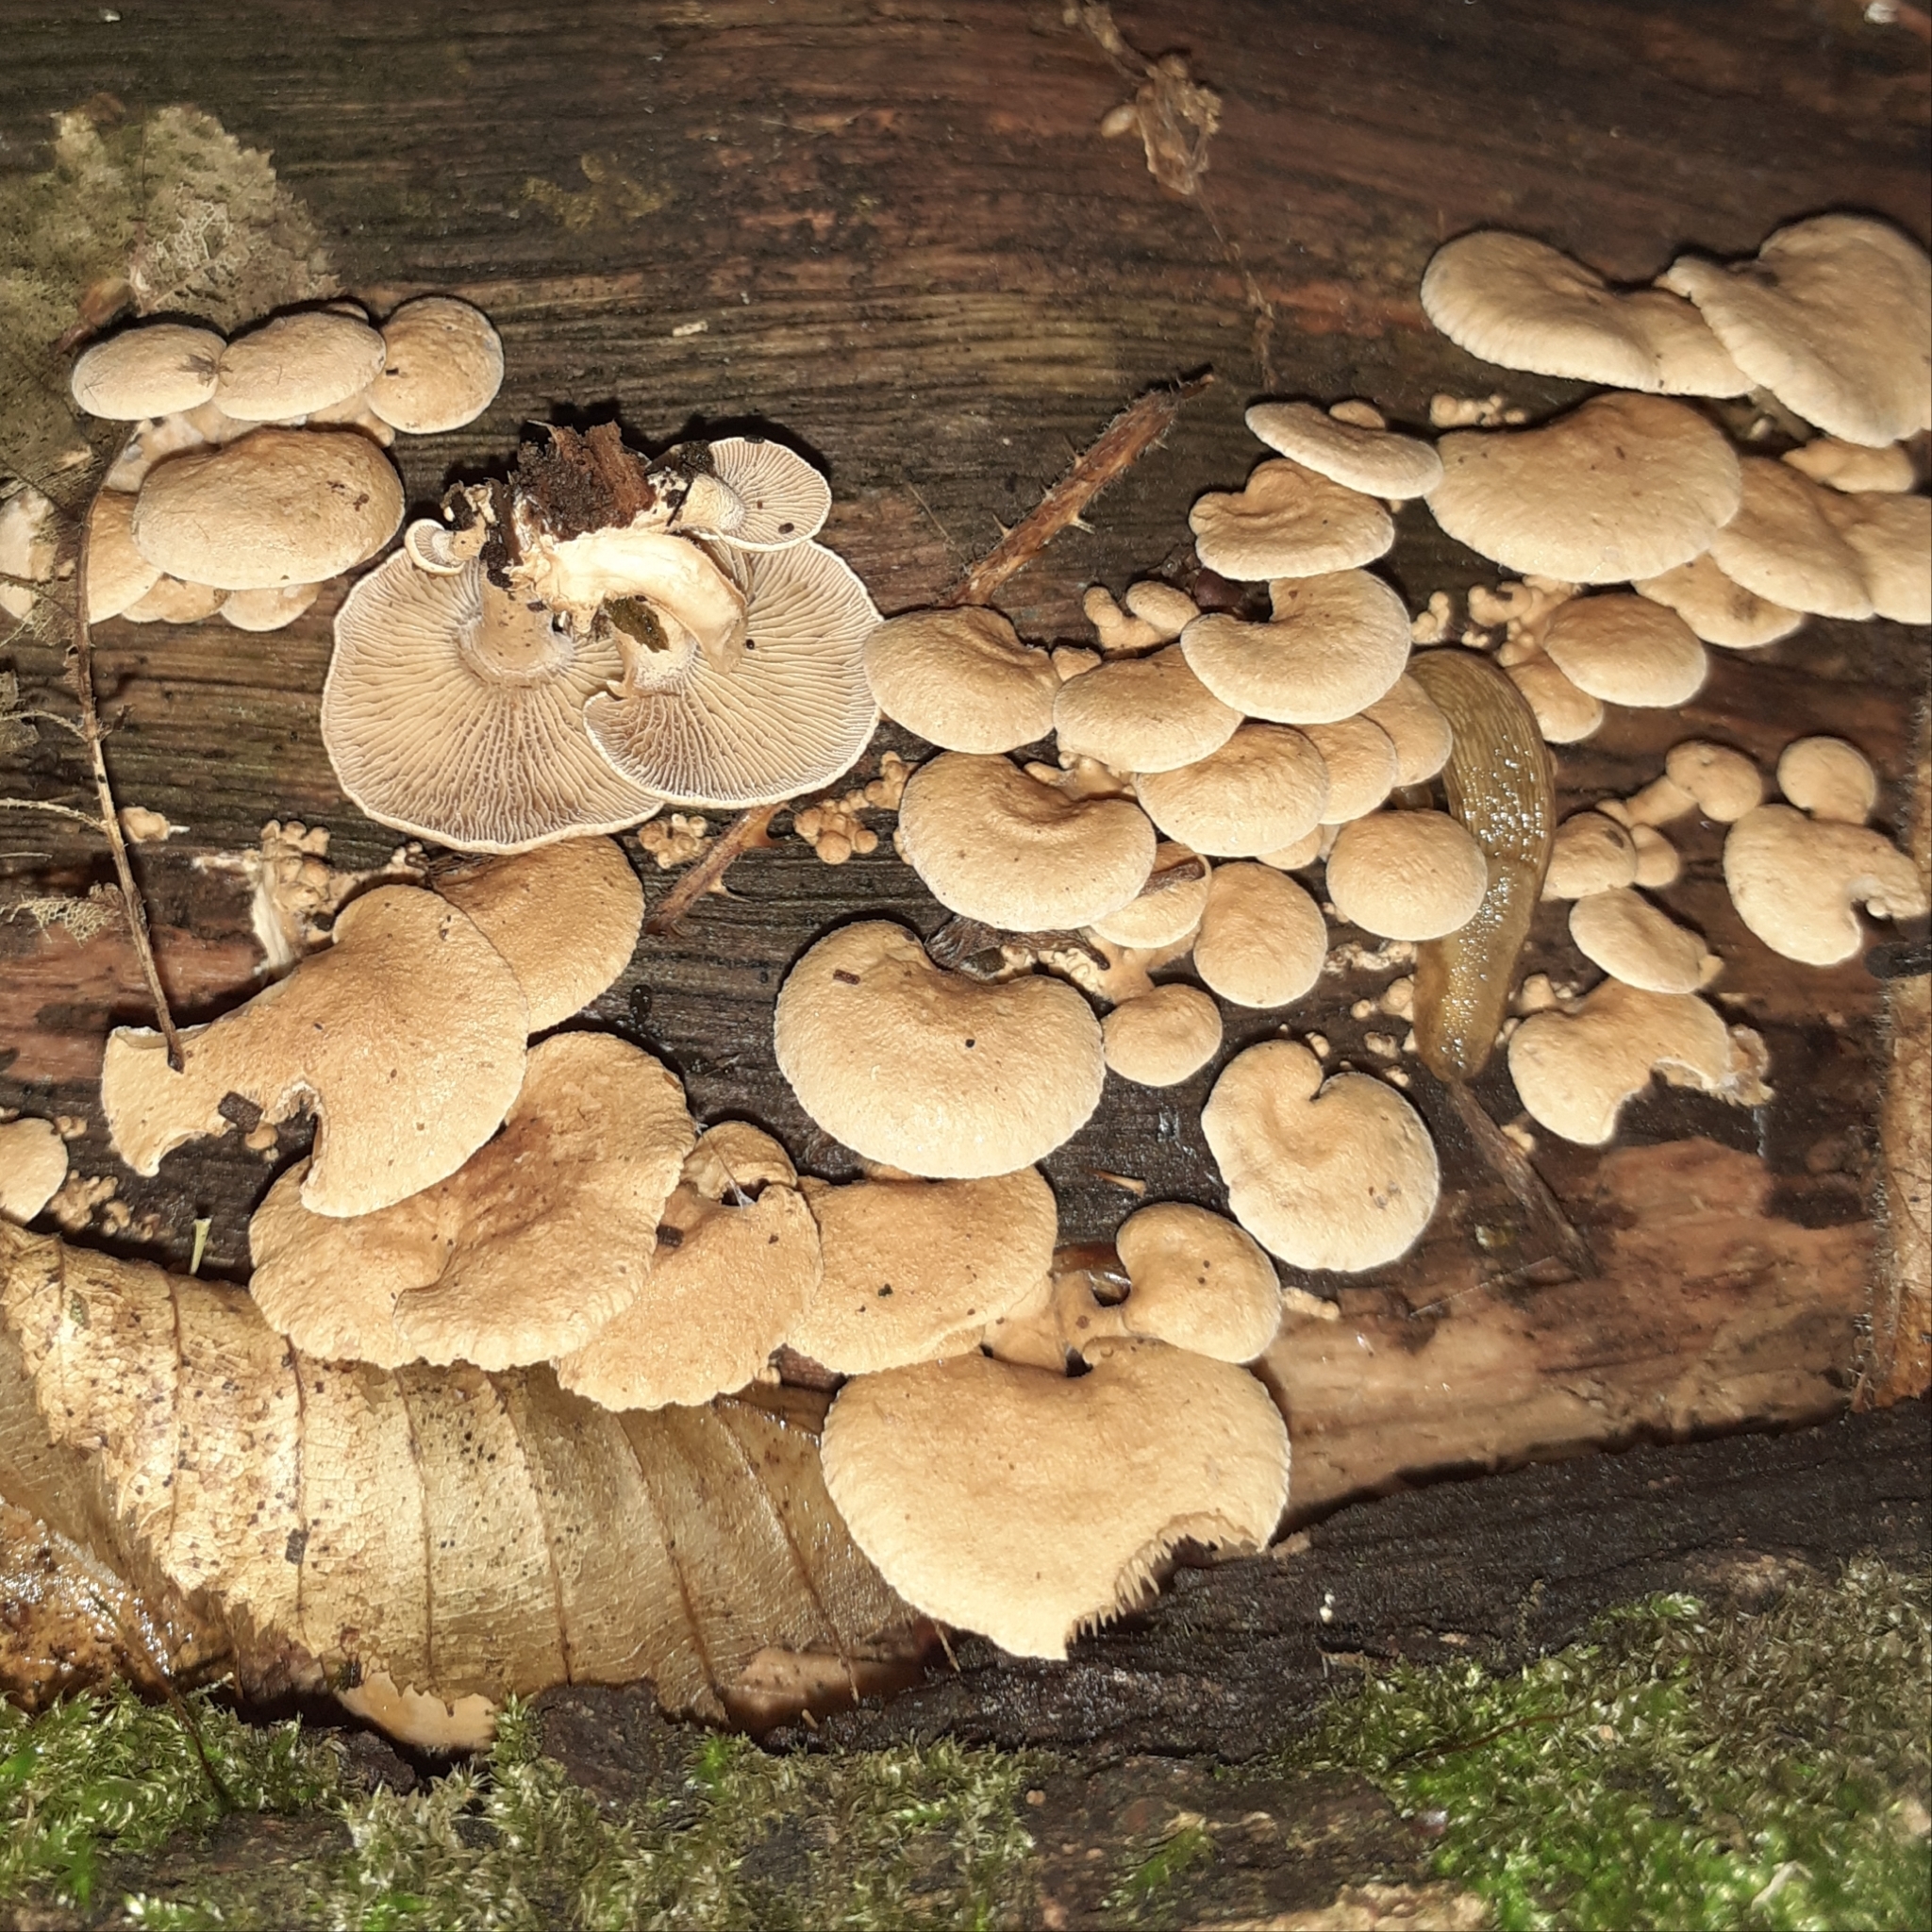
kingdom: Fungi
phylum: Basidiomycota
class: Agaricomycetes
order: Agaricales
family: Mycenaceae
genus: Panellus
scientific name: Panellus stipticus
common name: Bitter oysterling
